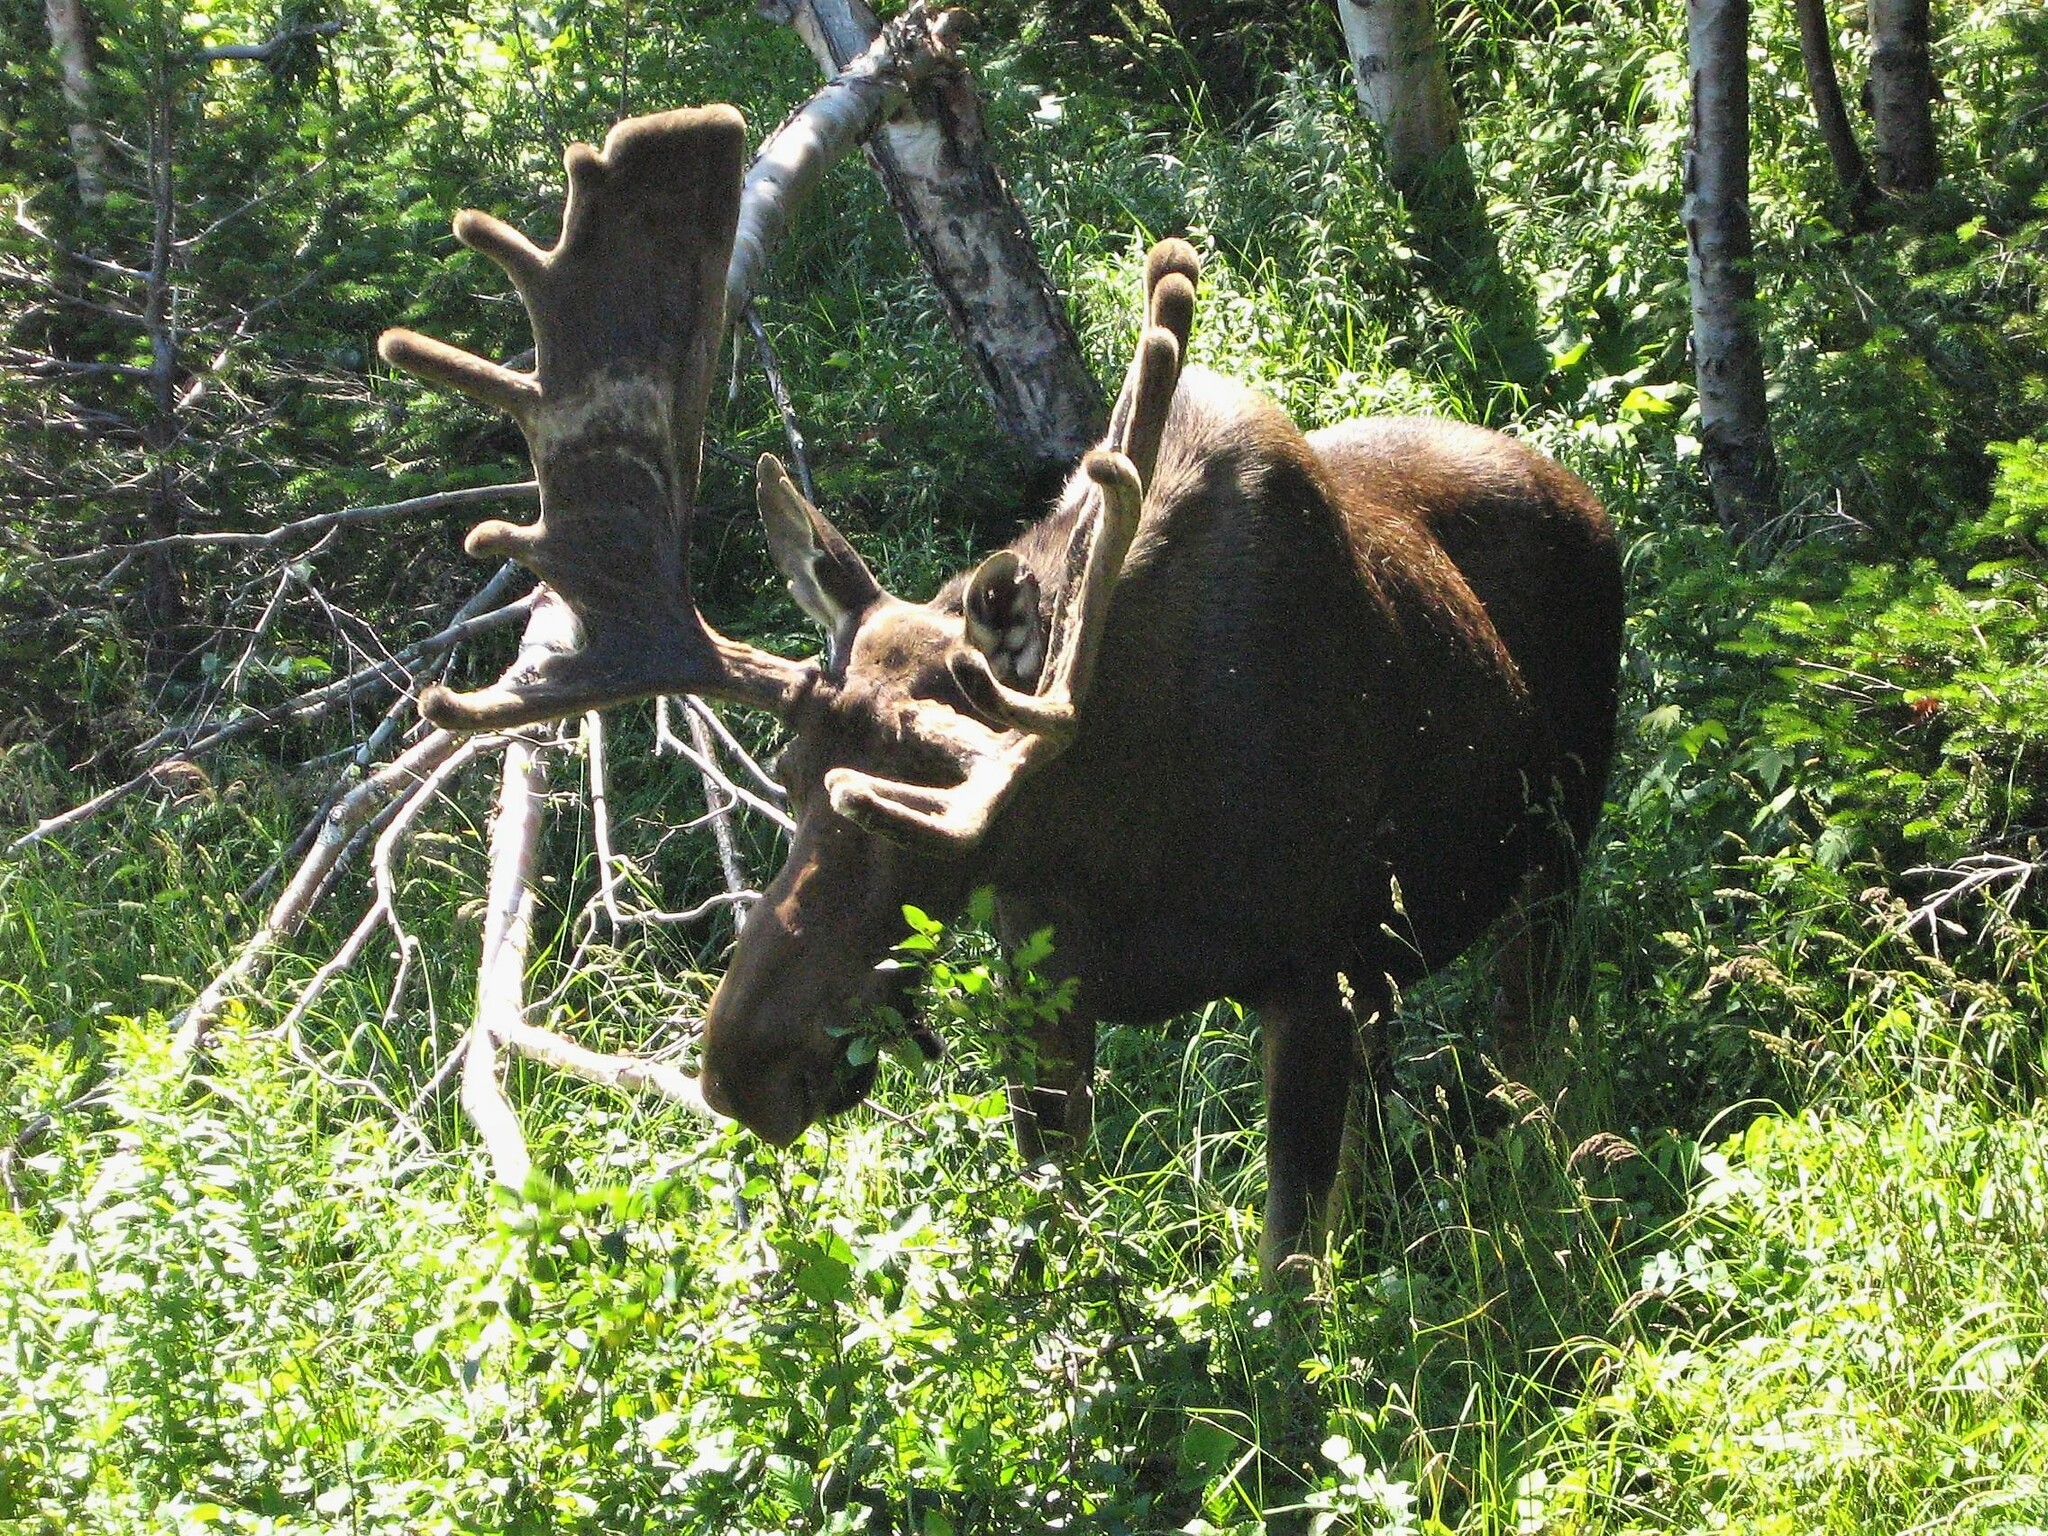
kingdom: Animalia
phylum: Chordata
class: Mammalia
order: Artiodactyla
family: Cervidae
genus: Alces
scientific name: Alces alces
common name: Moose
